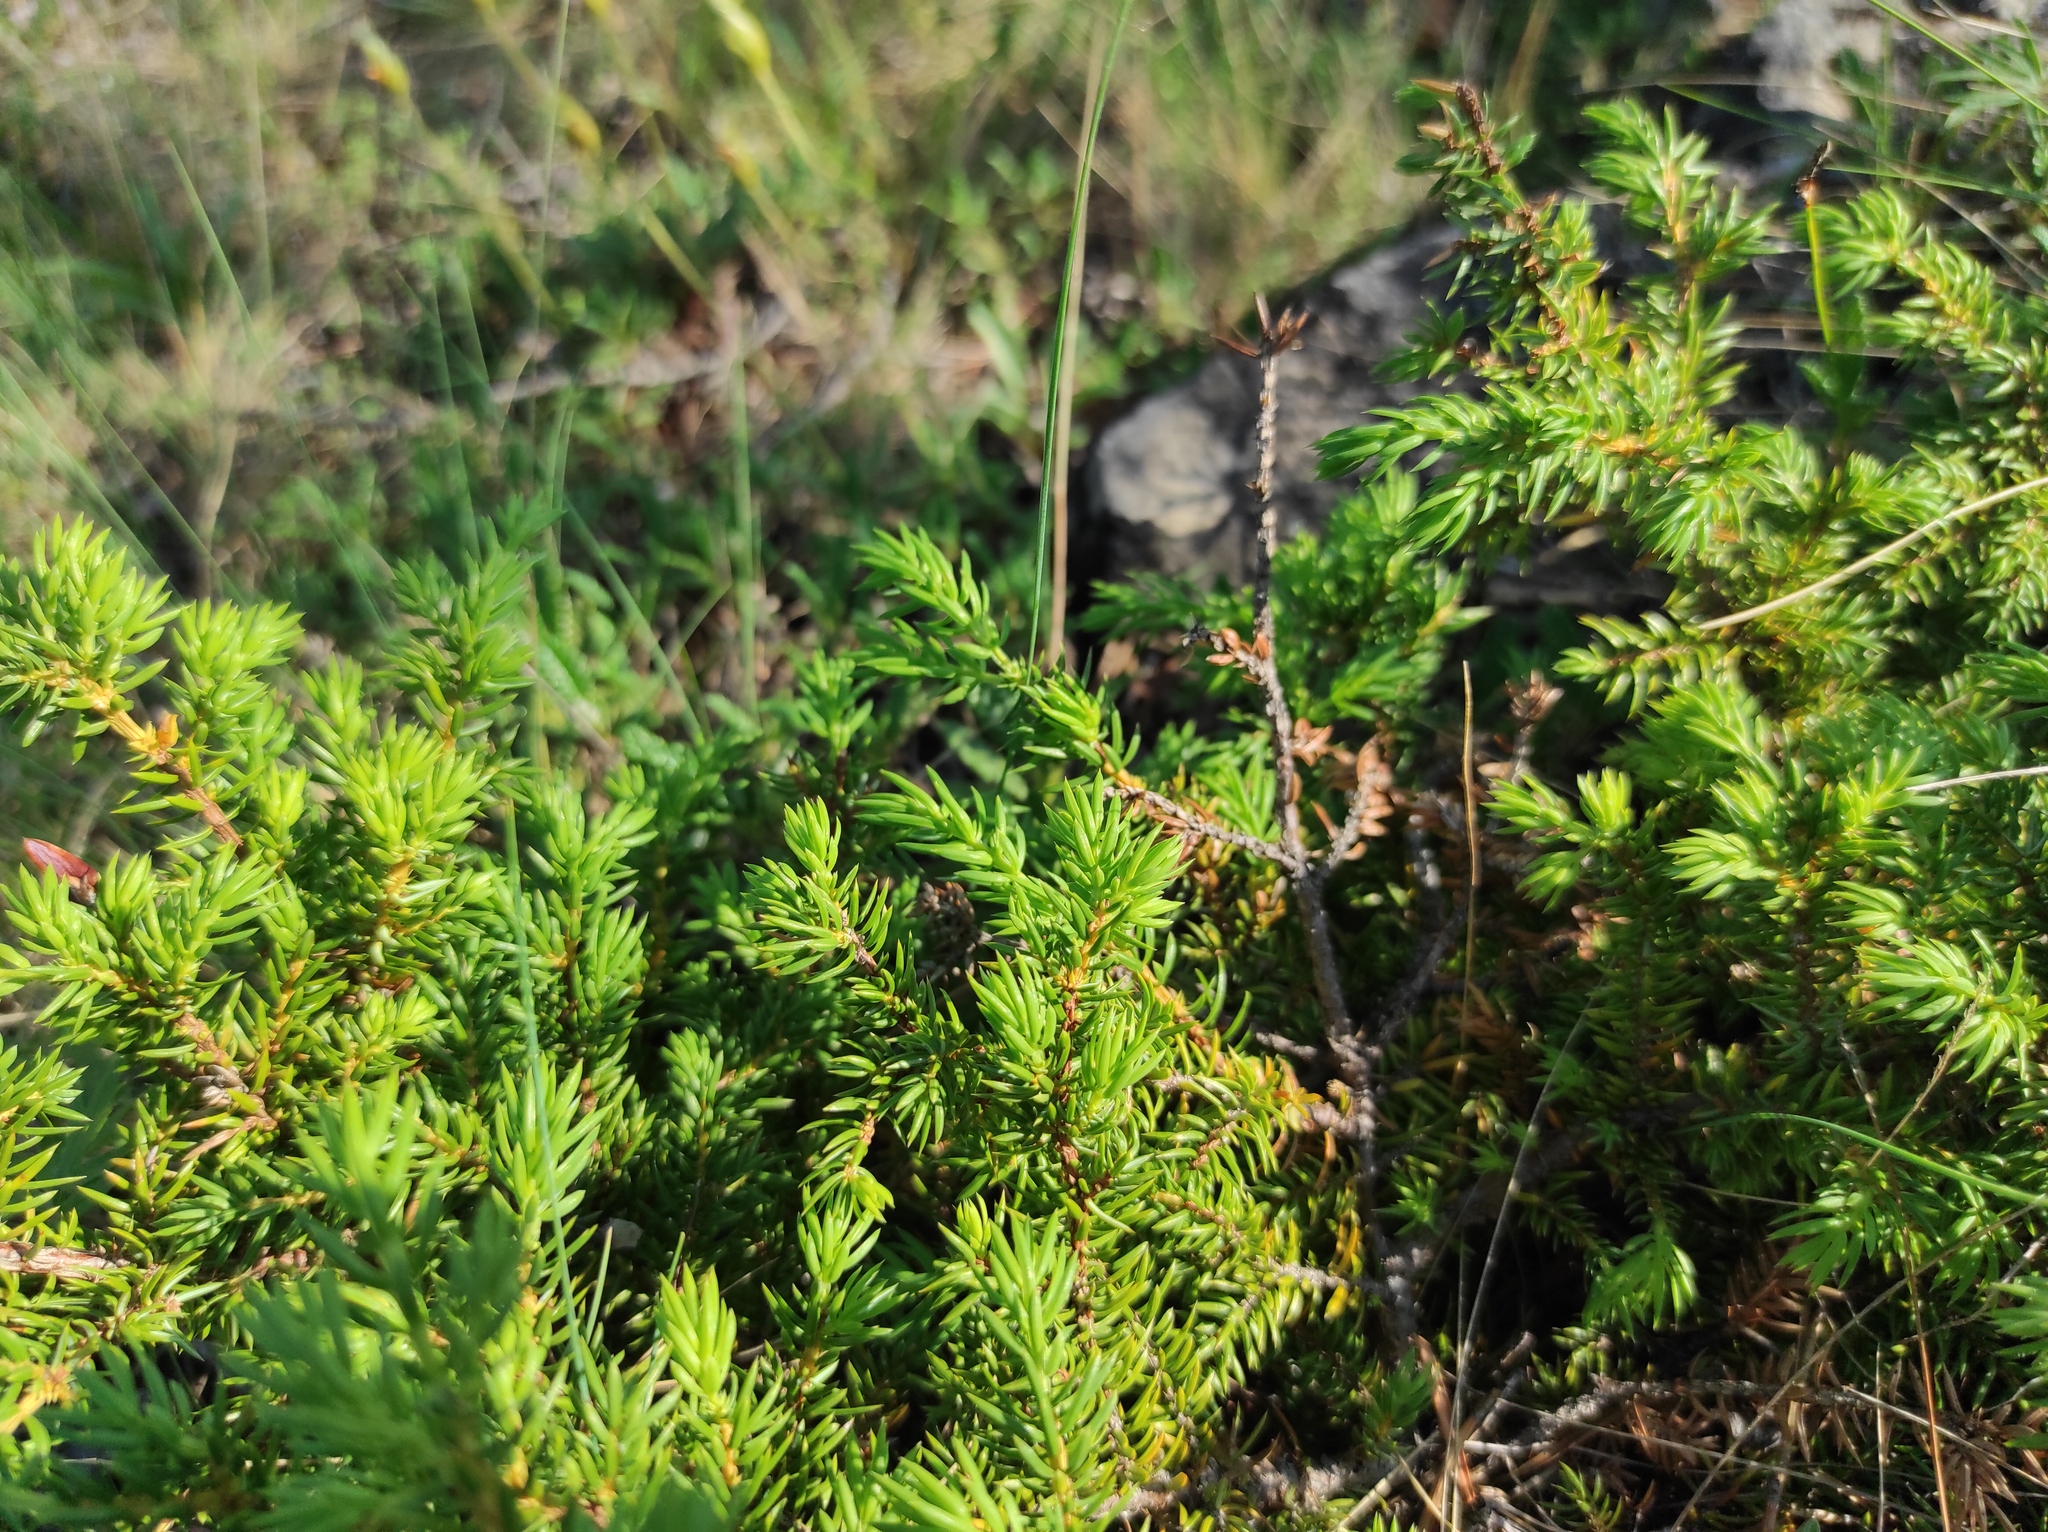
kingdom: Plantae
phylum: Tracheophyta
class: Pinopsida
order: Pinales
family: Cupressaceae
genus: Juniperus
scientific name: Juniperus communis
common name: Common juniper
